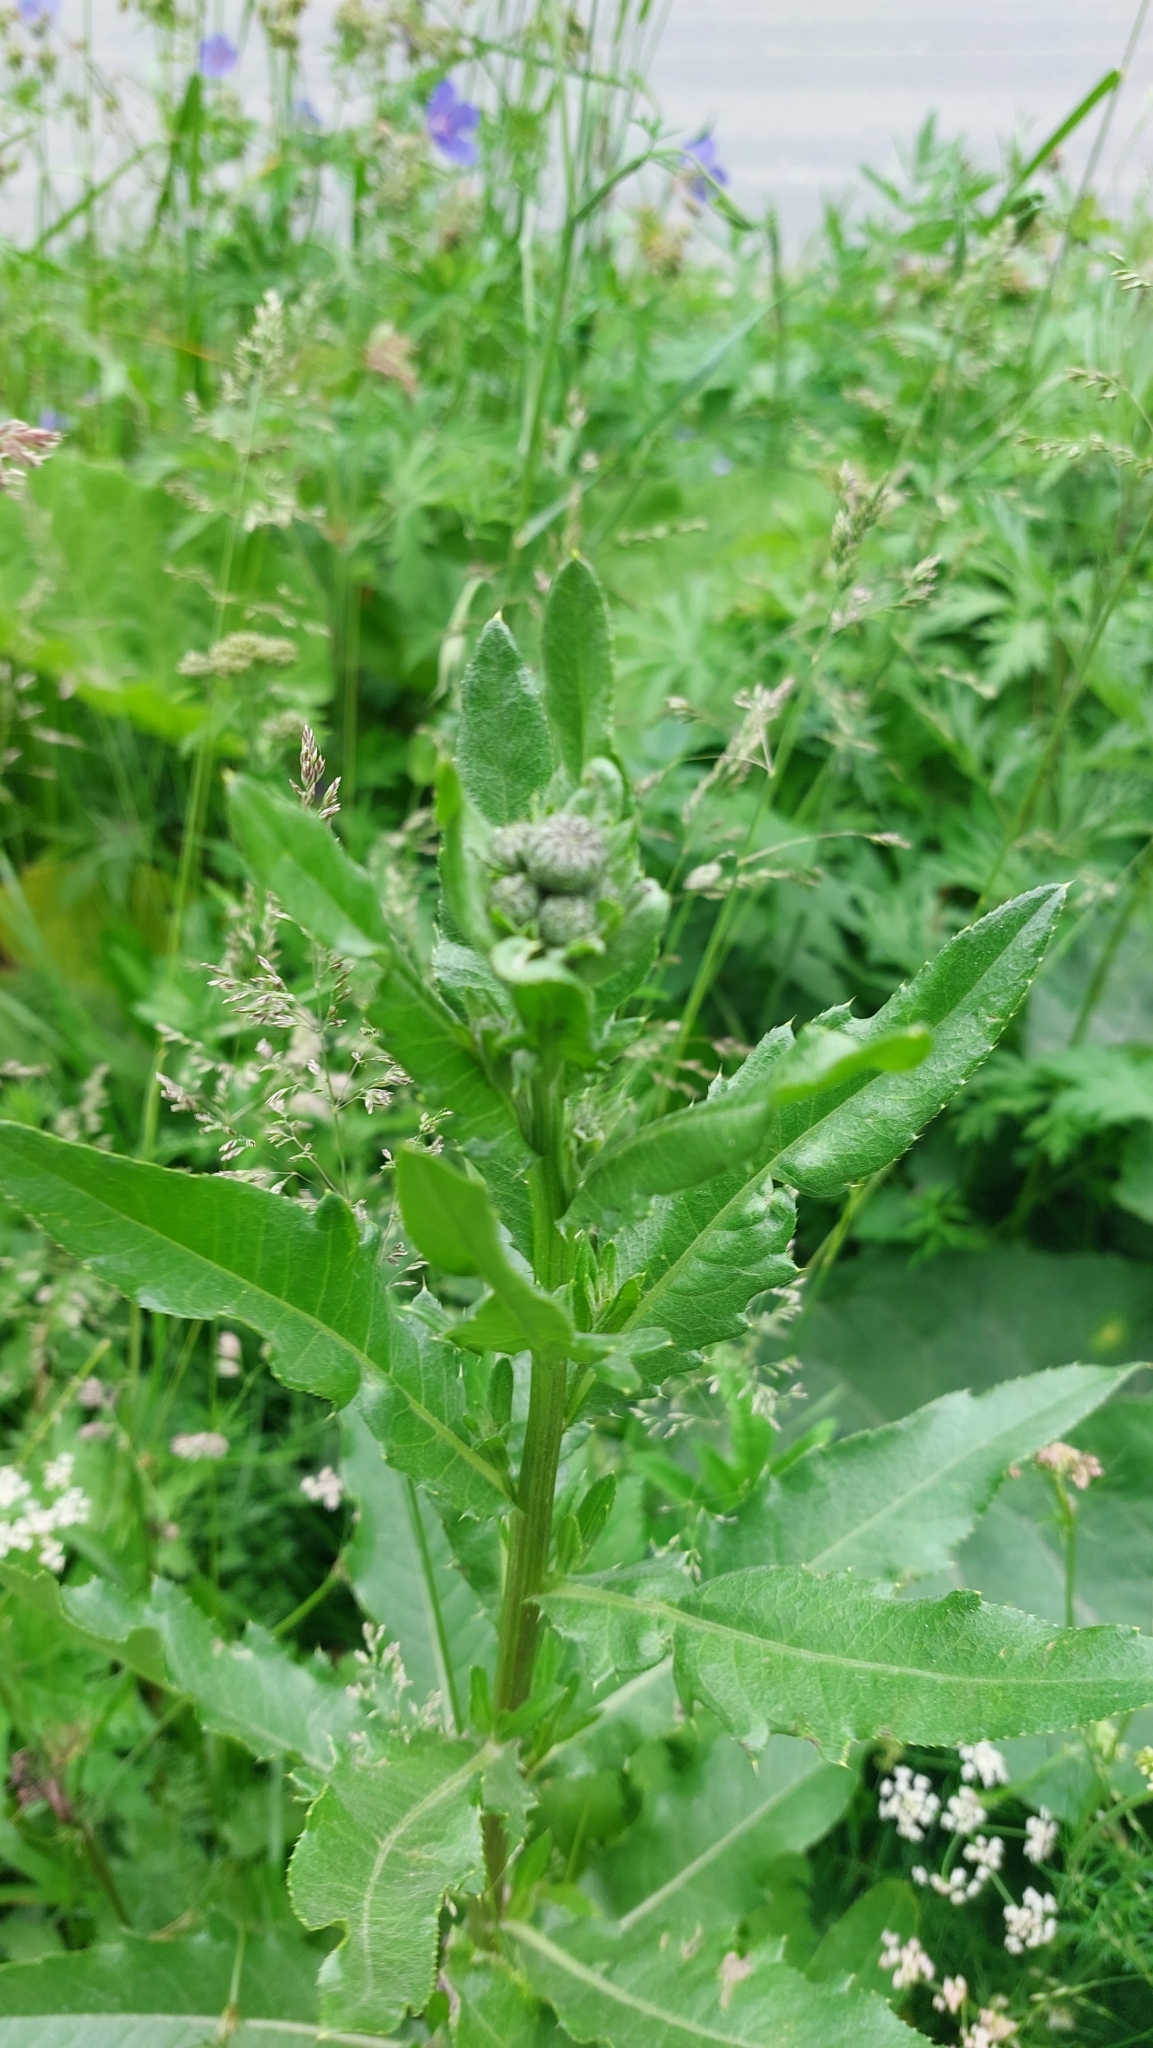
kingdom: Plantae
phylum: Tracheophyta
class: Magnoliopsida
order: Asterales
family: Asteraceae
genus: Cirsium
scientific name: Cirsium arvense
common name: Creeping thistle
